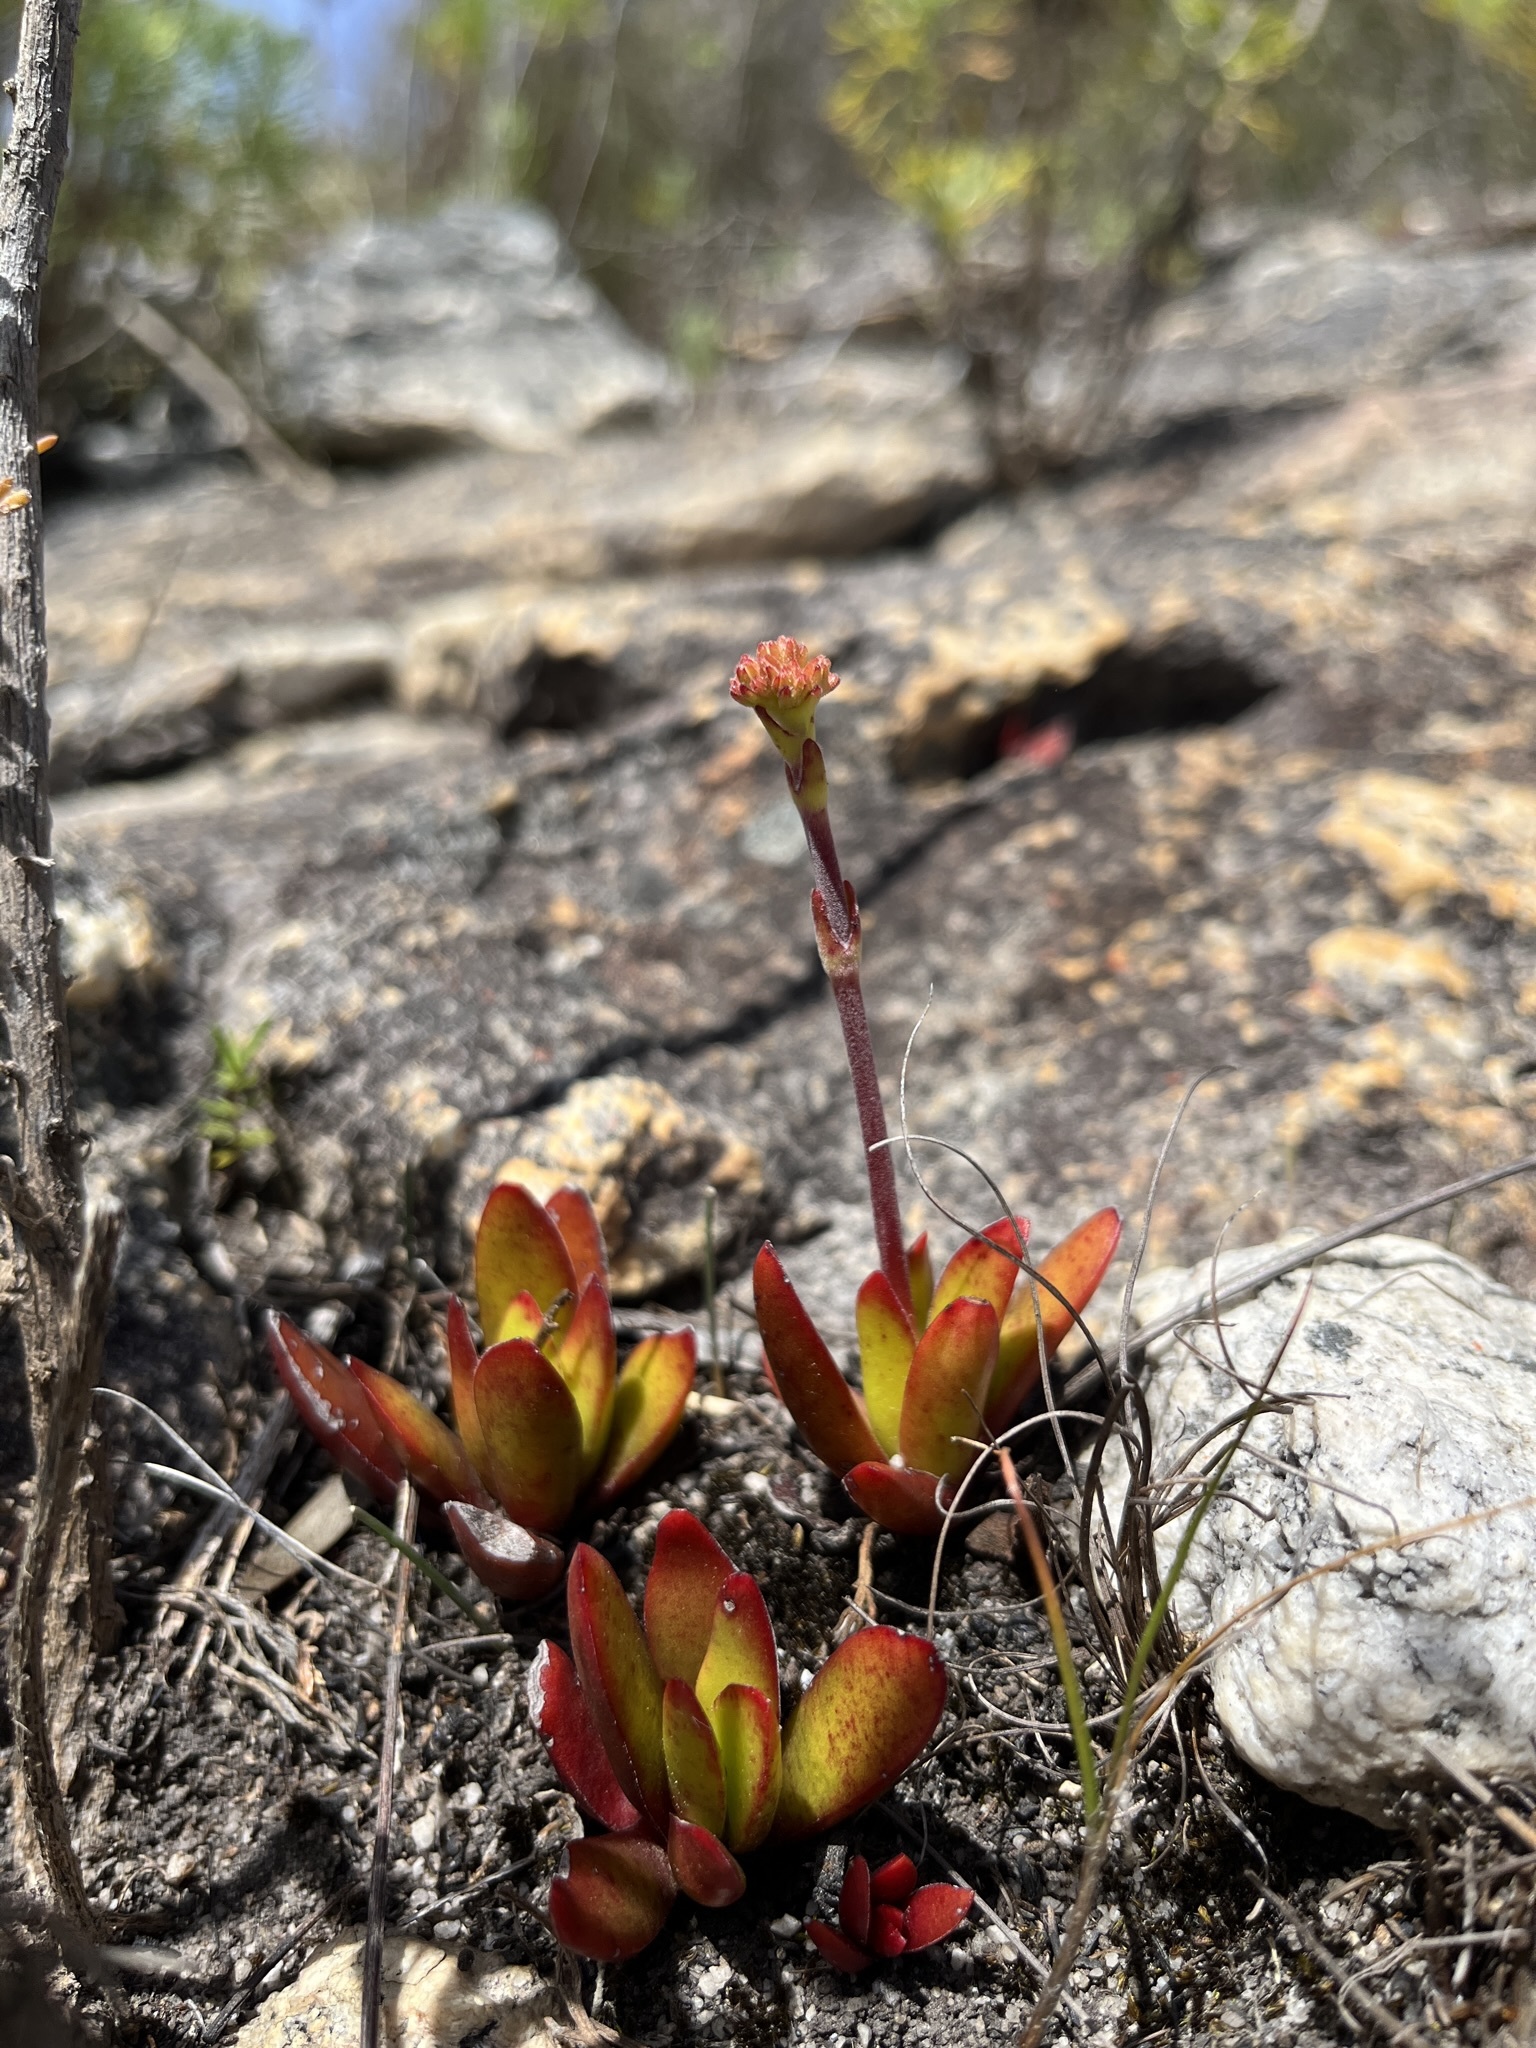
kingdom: Plantae
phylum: Tracheophyta
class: Magnoliopsida
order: Saxifragales
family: Crassulaceae
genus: Crassula
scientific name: Crassula nudicaulis
